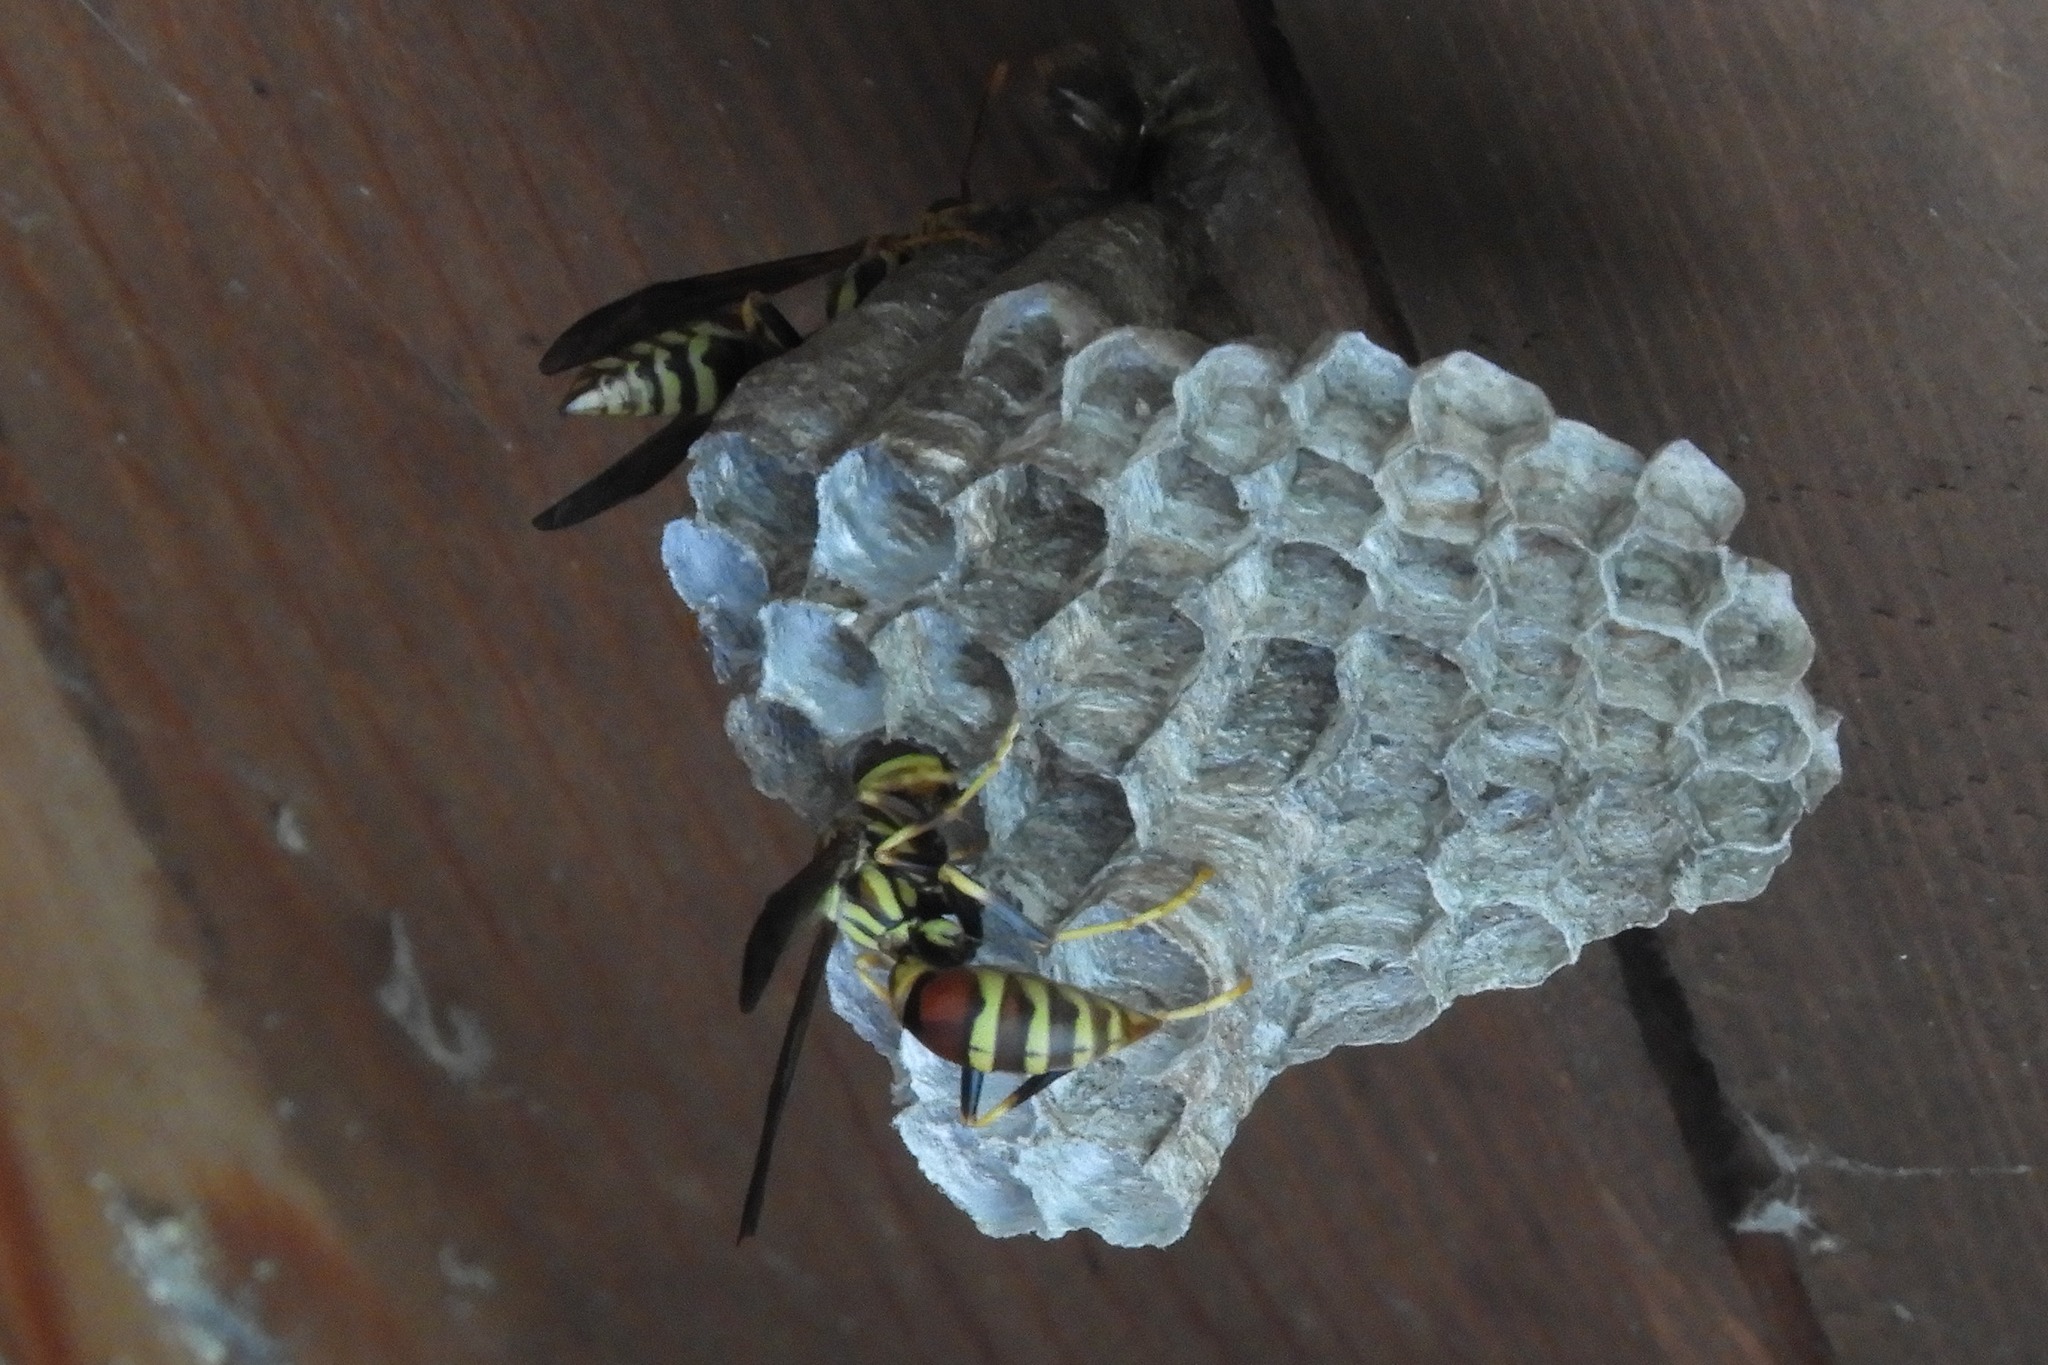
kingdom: Animalia
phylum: Arthropoda
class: Insecta
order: Hymenoptera
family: Eumenidae
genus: Polistes
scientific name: Polistes exclamans
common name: Paper wasp
